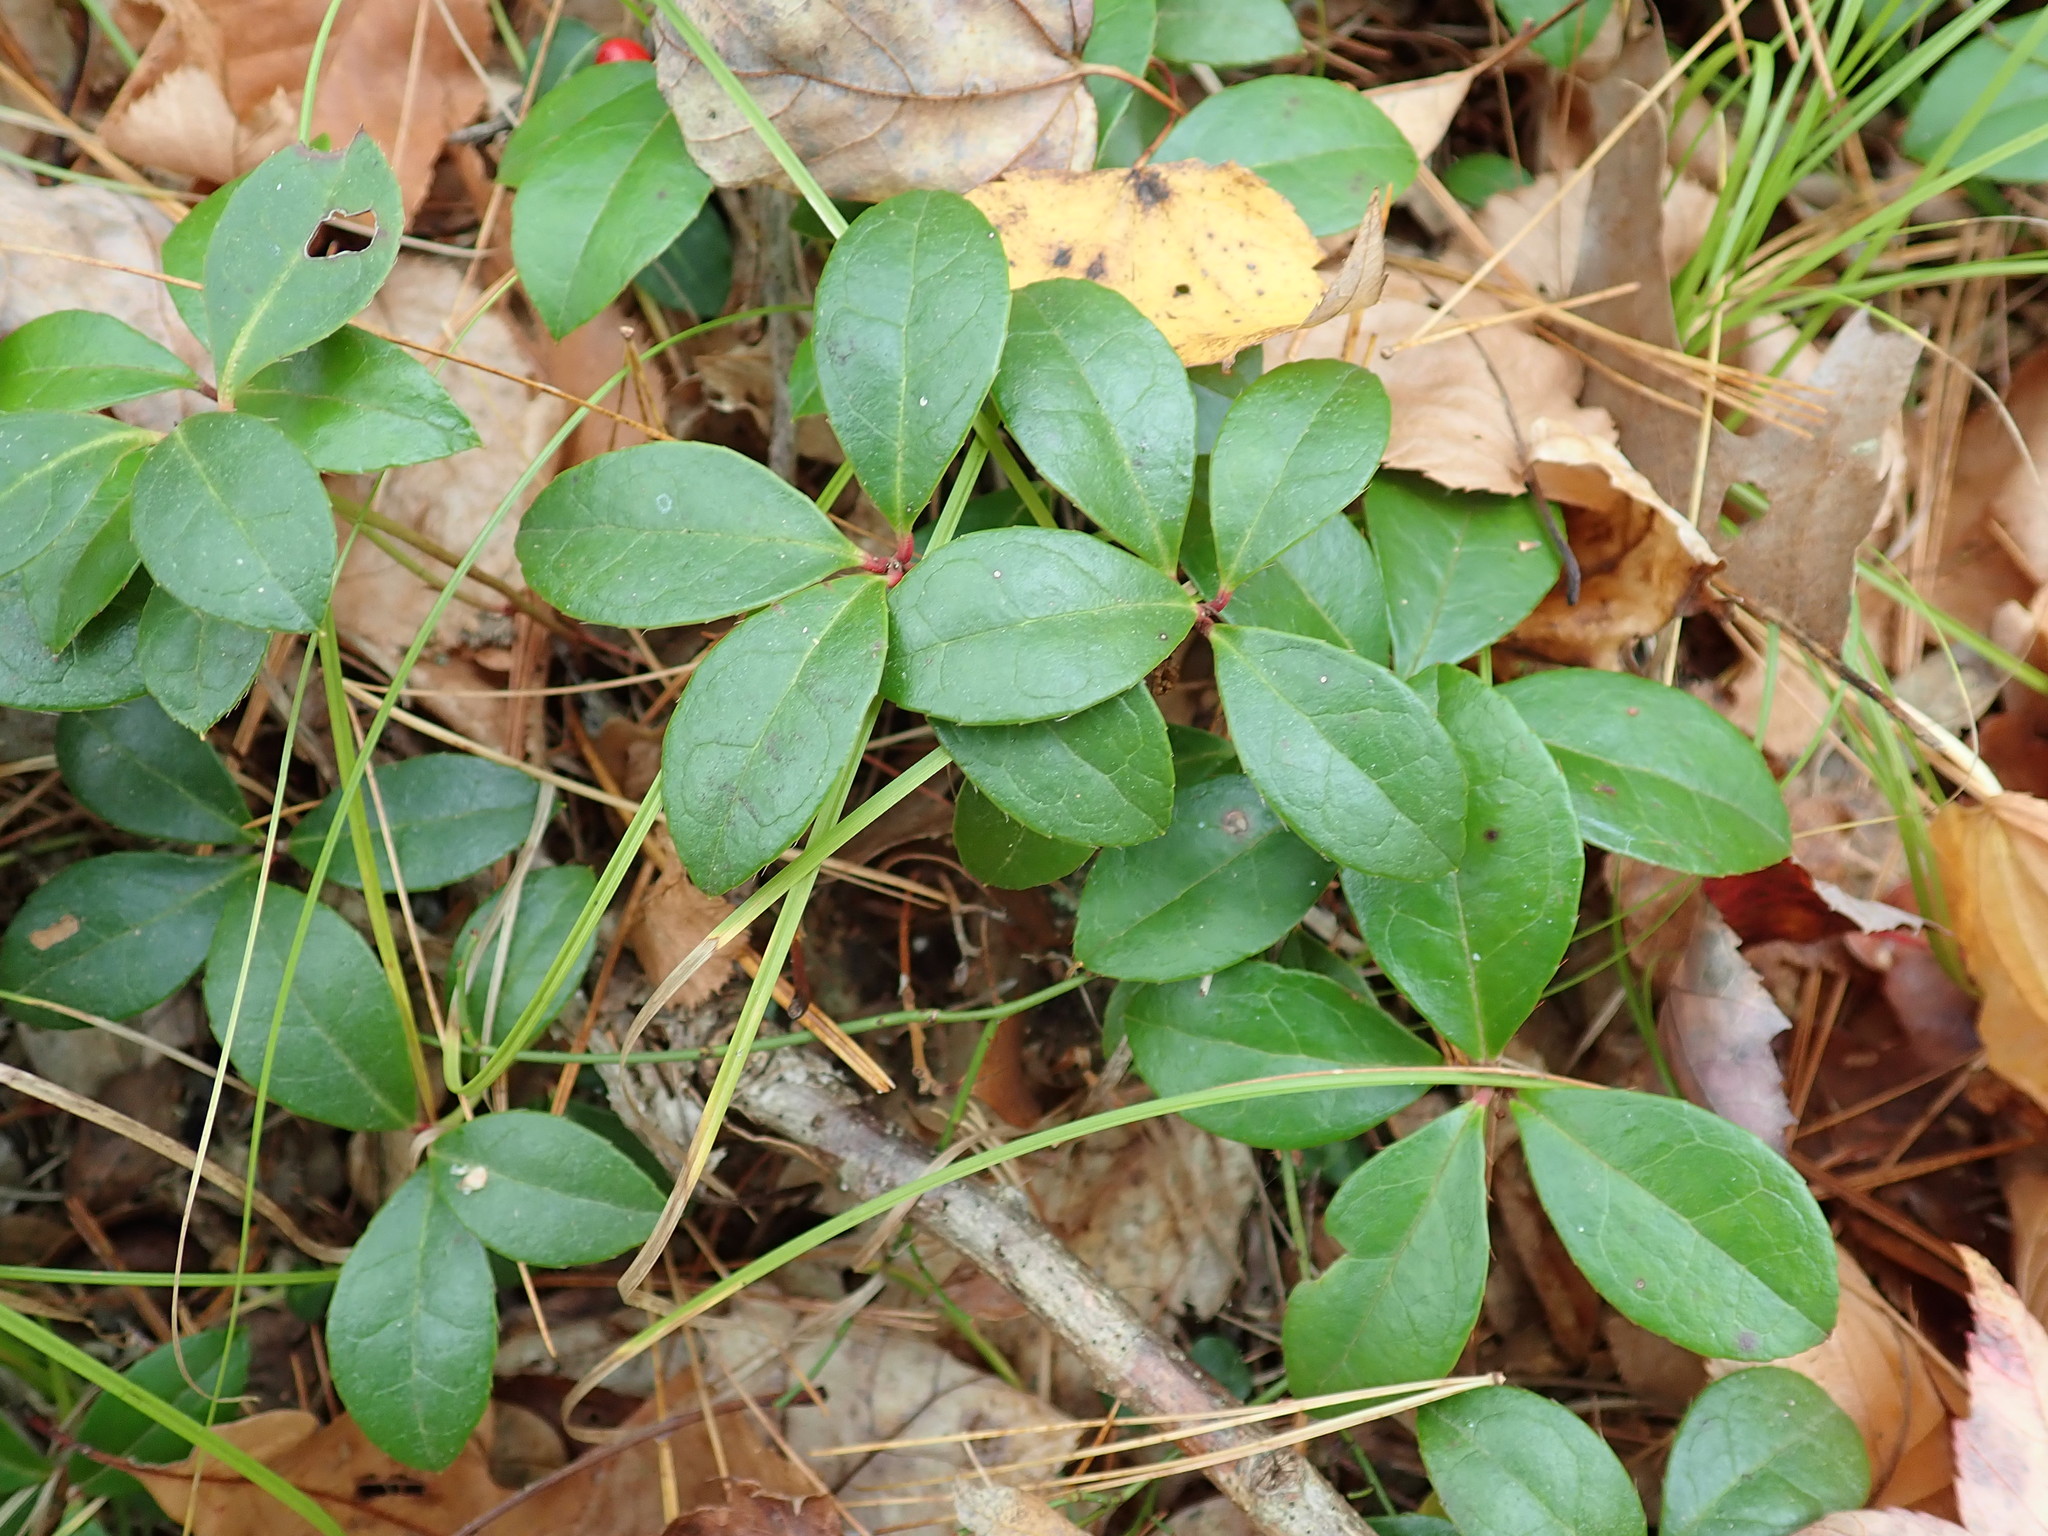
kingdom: Plantae
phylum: Tracheophyta
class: Magnoliopsida
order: Ericales
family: Ericaceae
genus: Gaultheria
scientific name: Gaultheria procumbens
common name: Checkerberry
